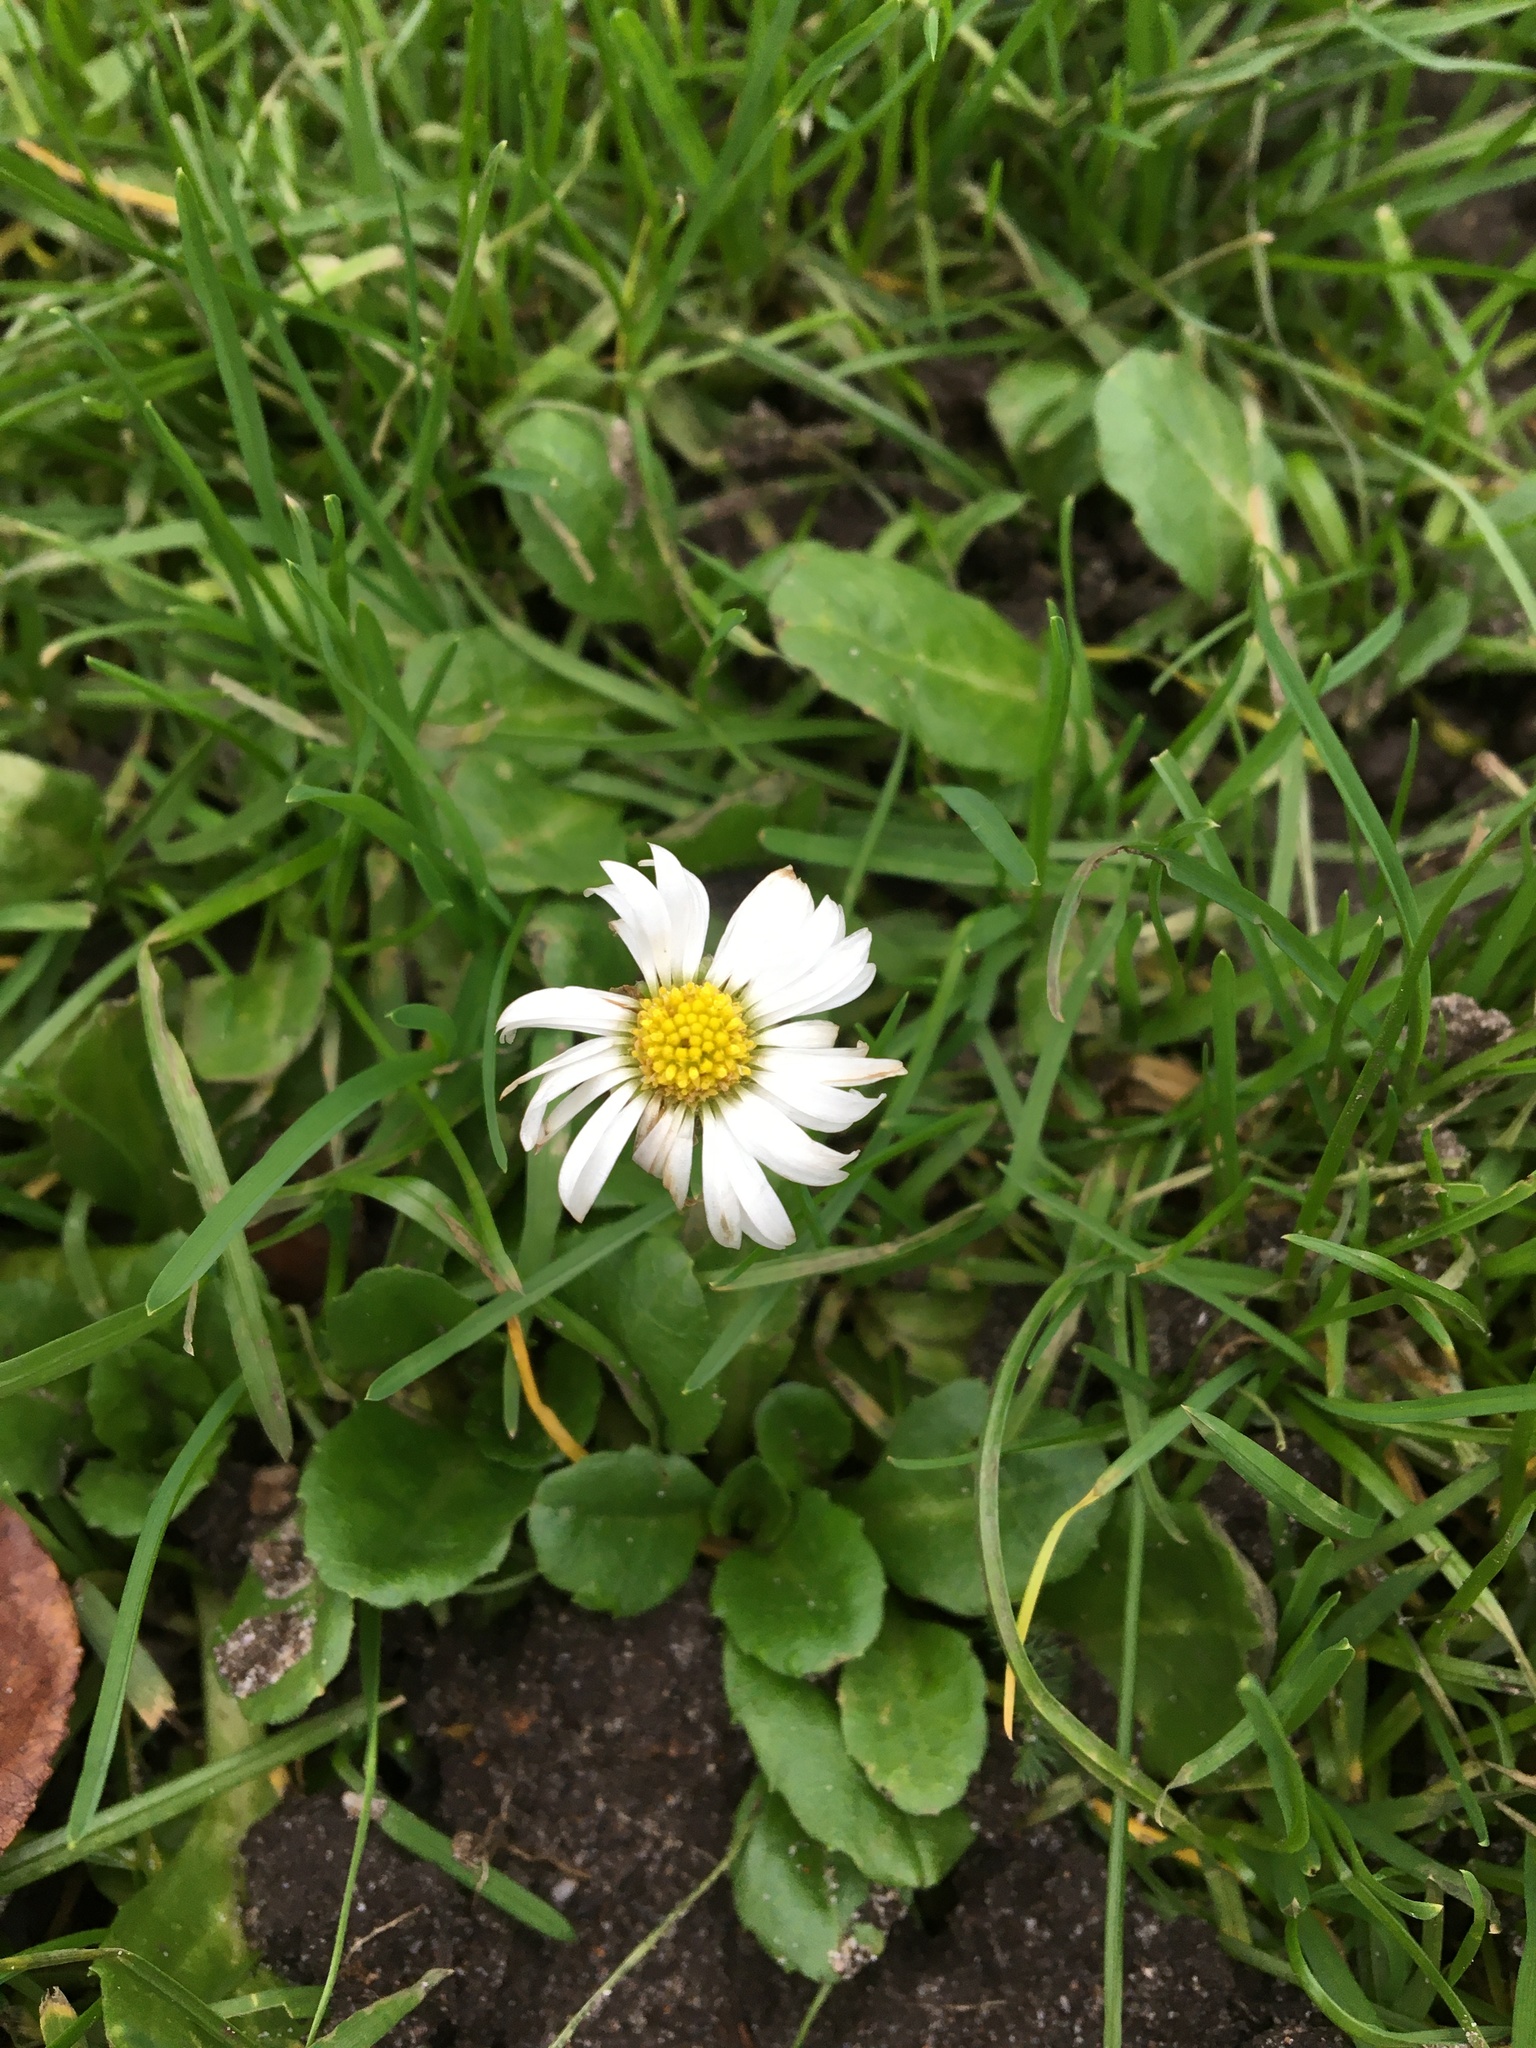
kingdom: Plantae
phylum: Tracheophyta
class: Magnoliopsida
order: Asterales
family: Asteraceae
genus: Bellis
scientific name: Bellis perennis
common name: Lawndaisy
